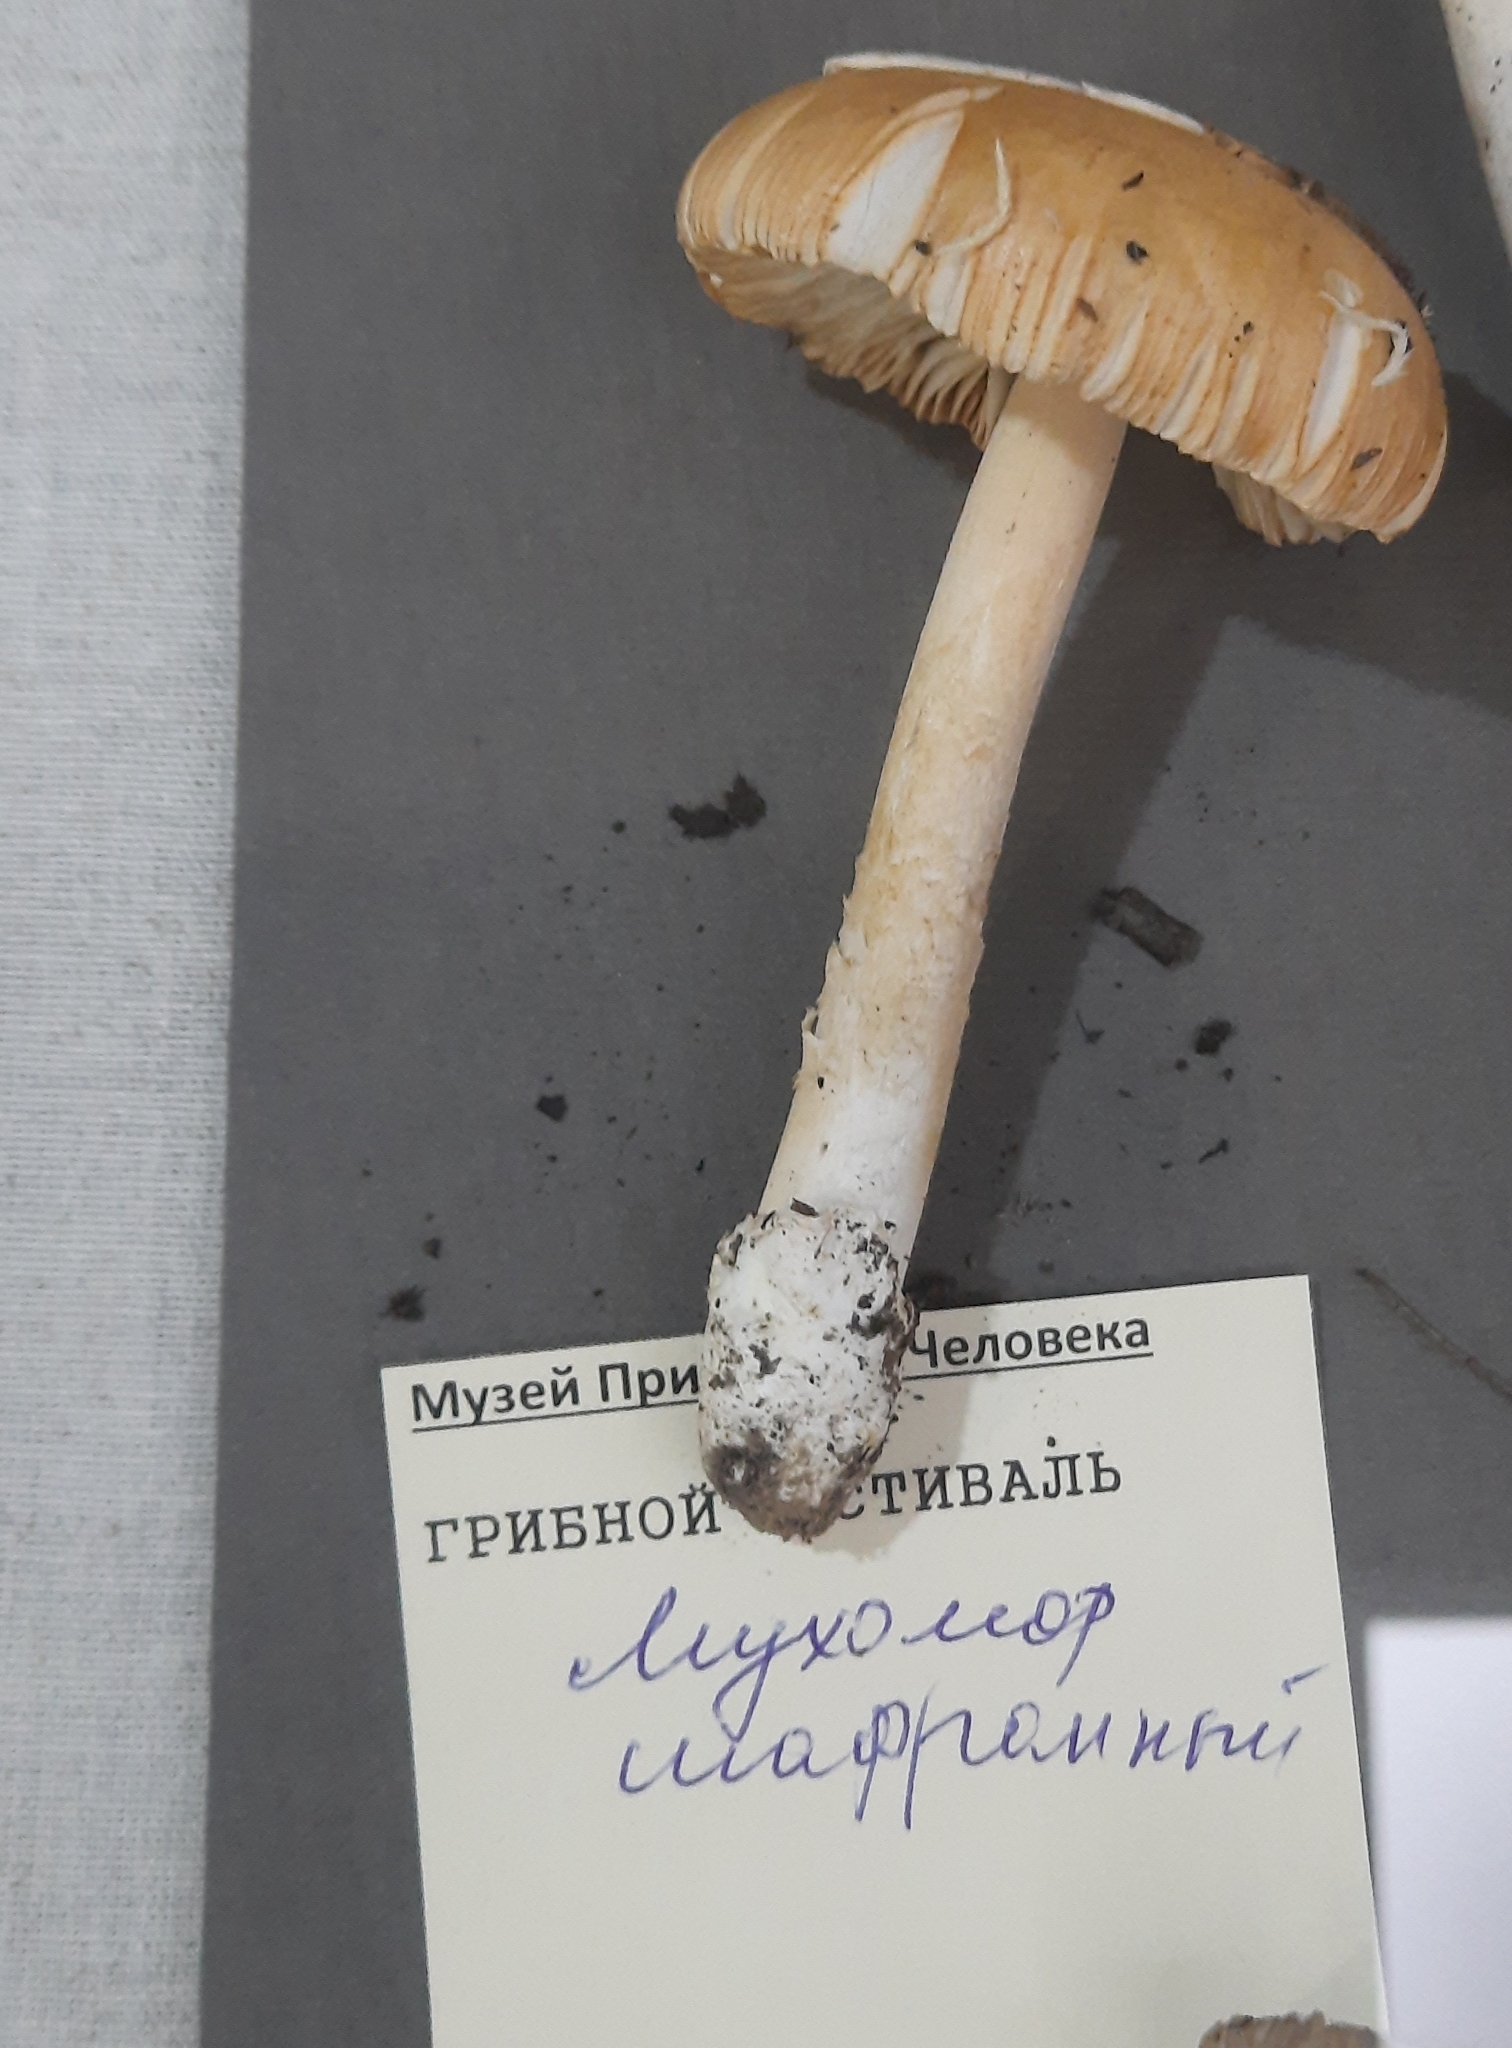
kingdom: Fungi
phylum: Basidiomycota
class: Agaricomycetes
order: Agaricales
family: Amanitaceae
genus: Amanita
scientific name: Amanita crocea
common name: Orange grisette
